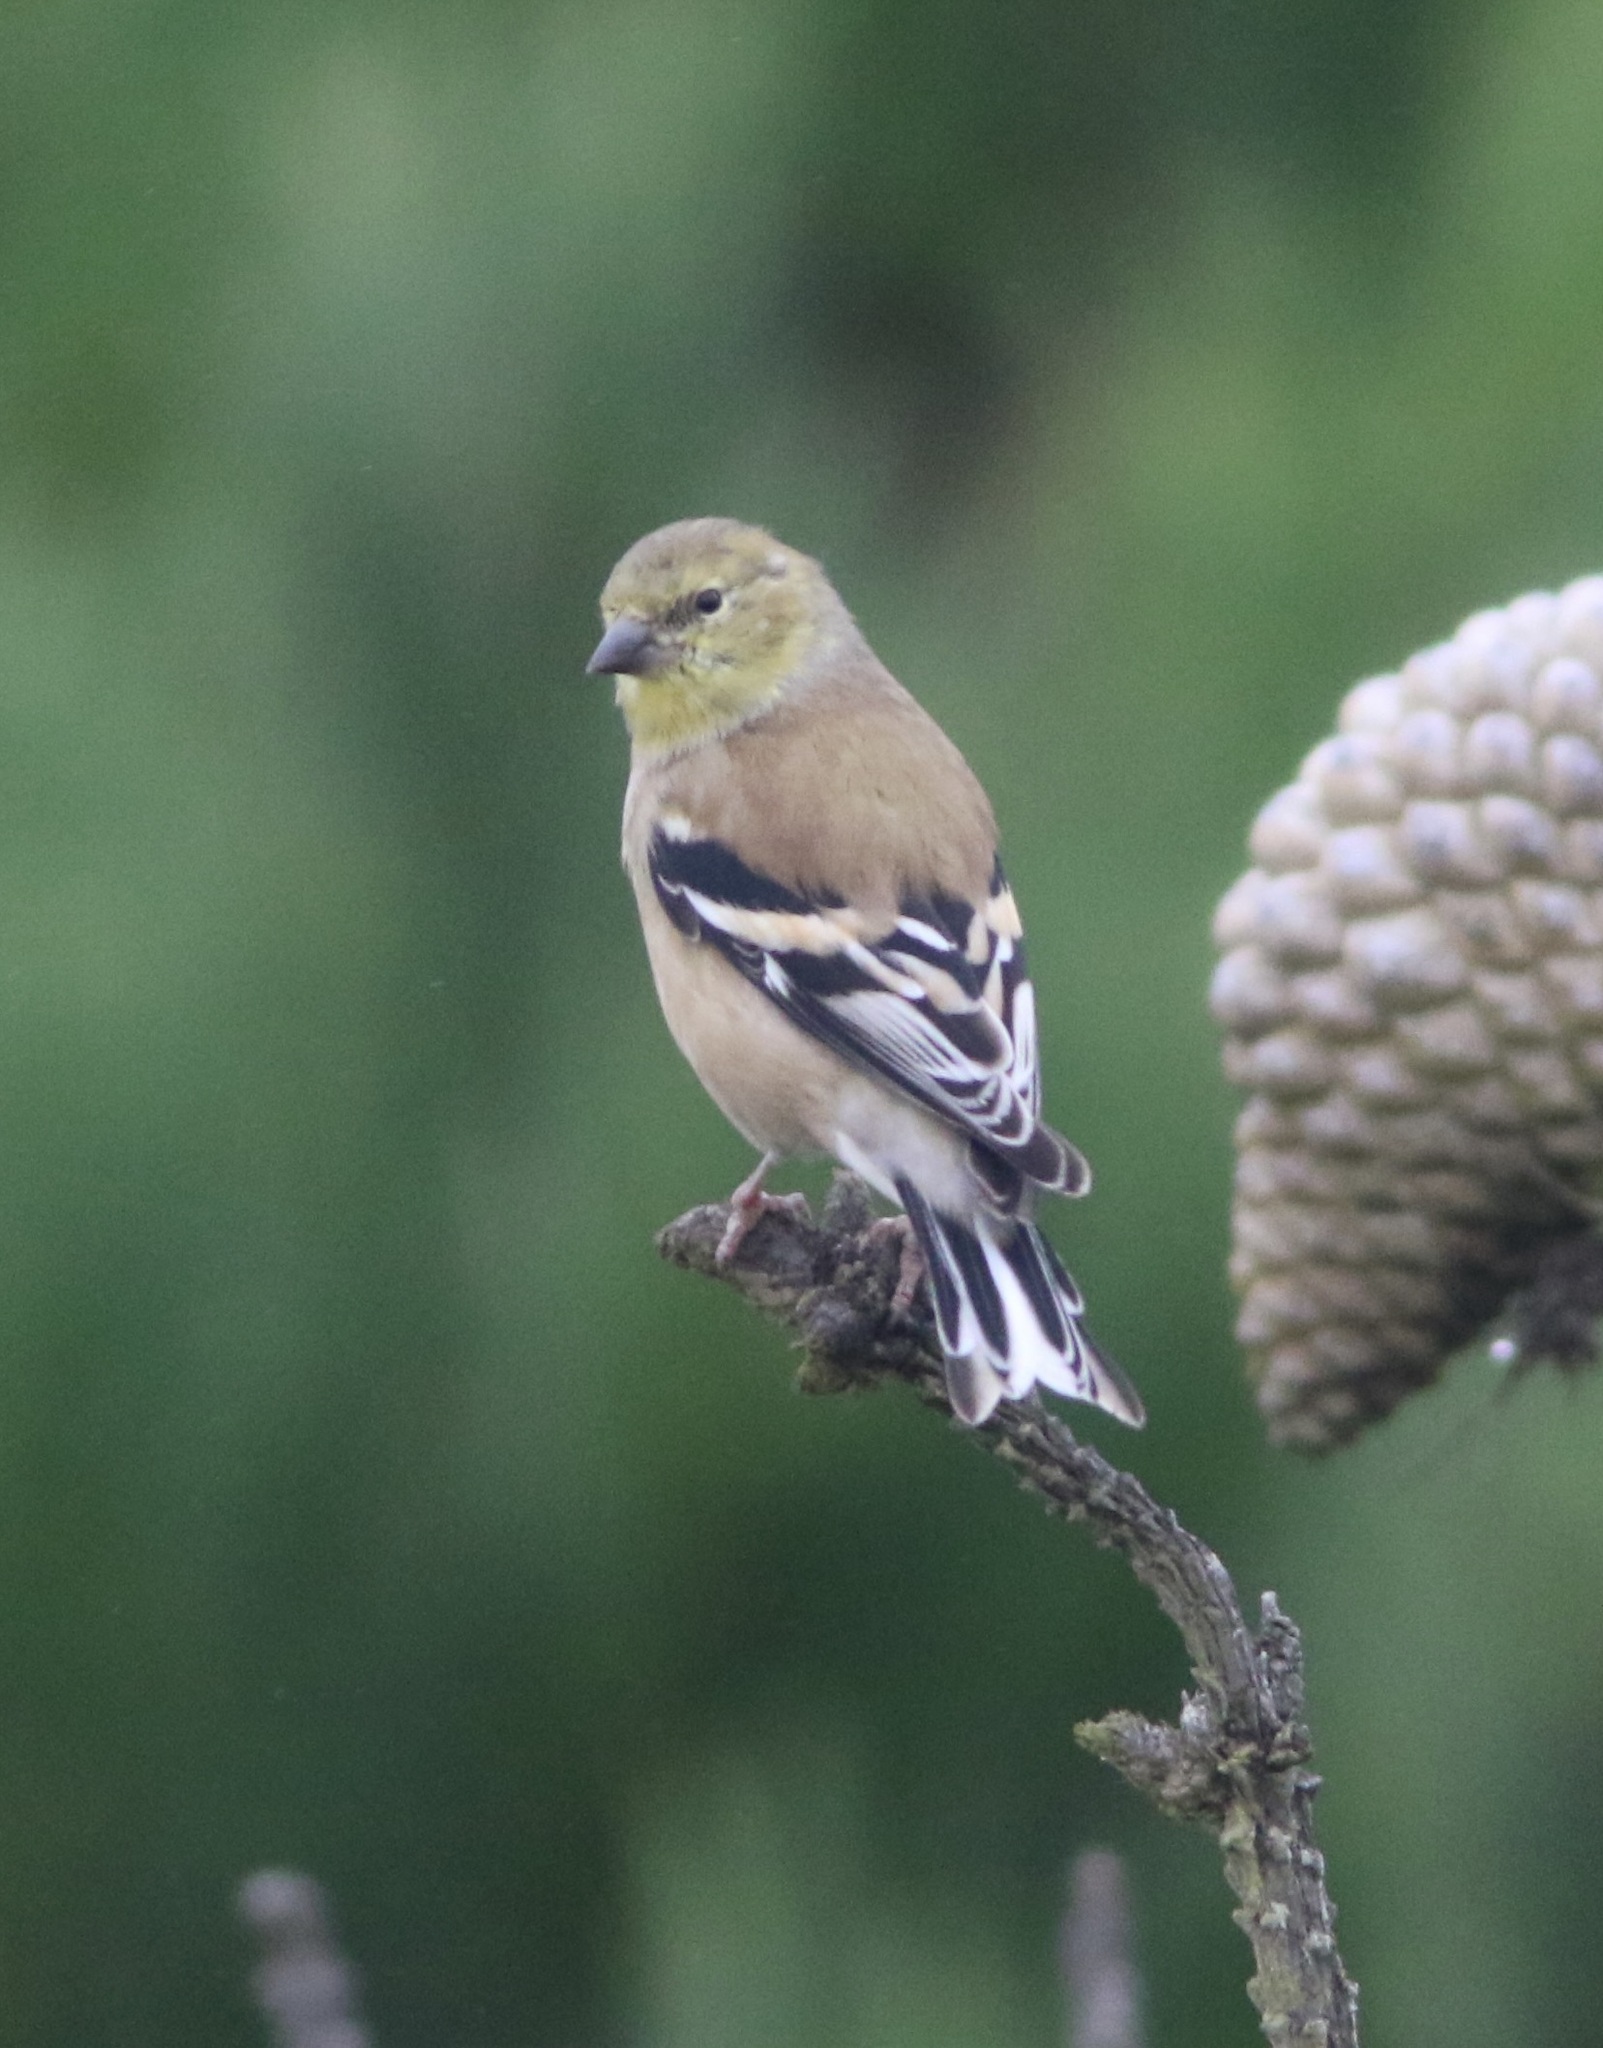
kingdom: Animalia
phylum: Chordata
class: Aves
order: Passeriformes
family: Fringillidae
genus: Spinus
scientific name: Spinus tristis
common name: American goldfinch
